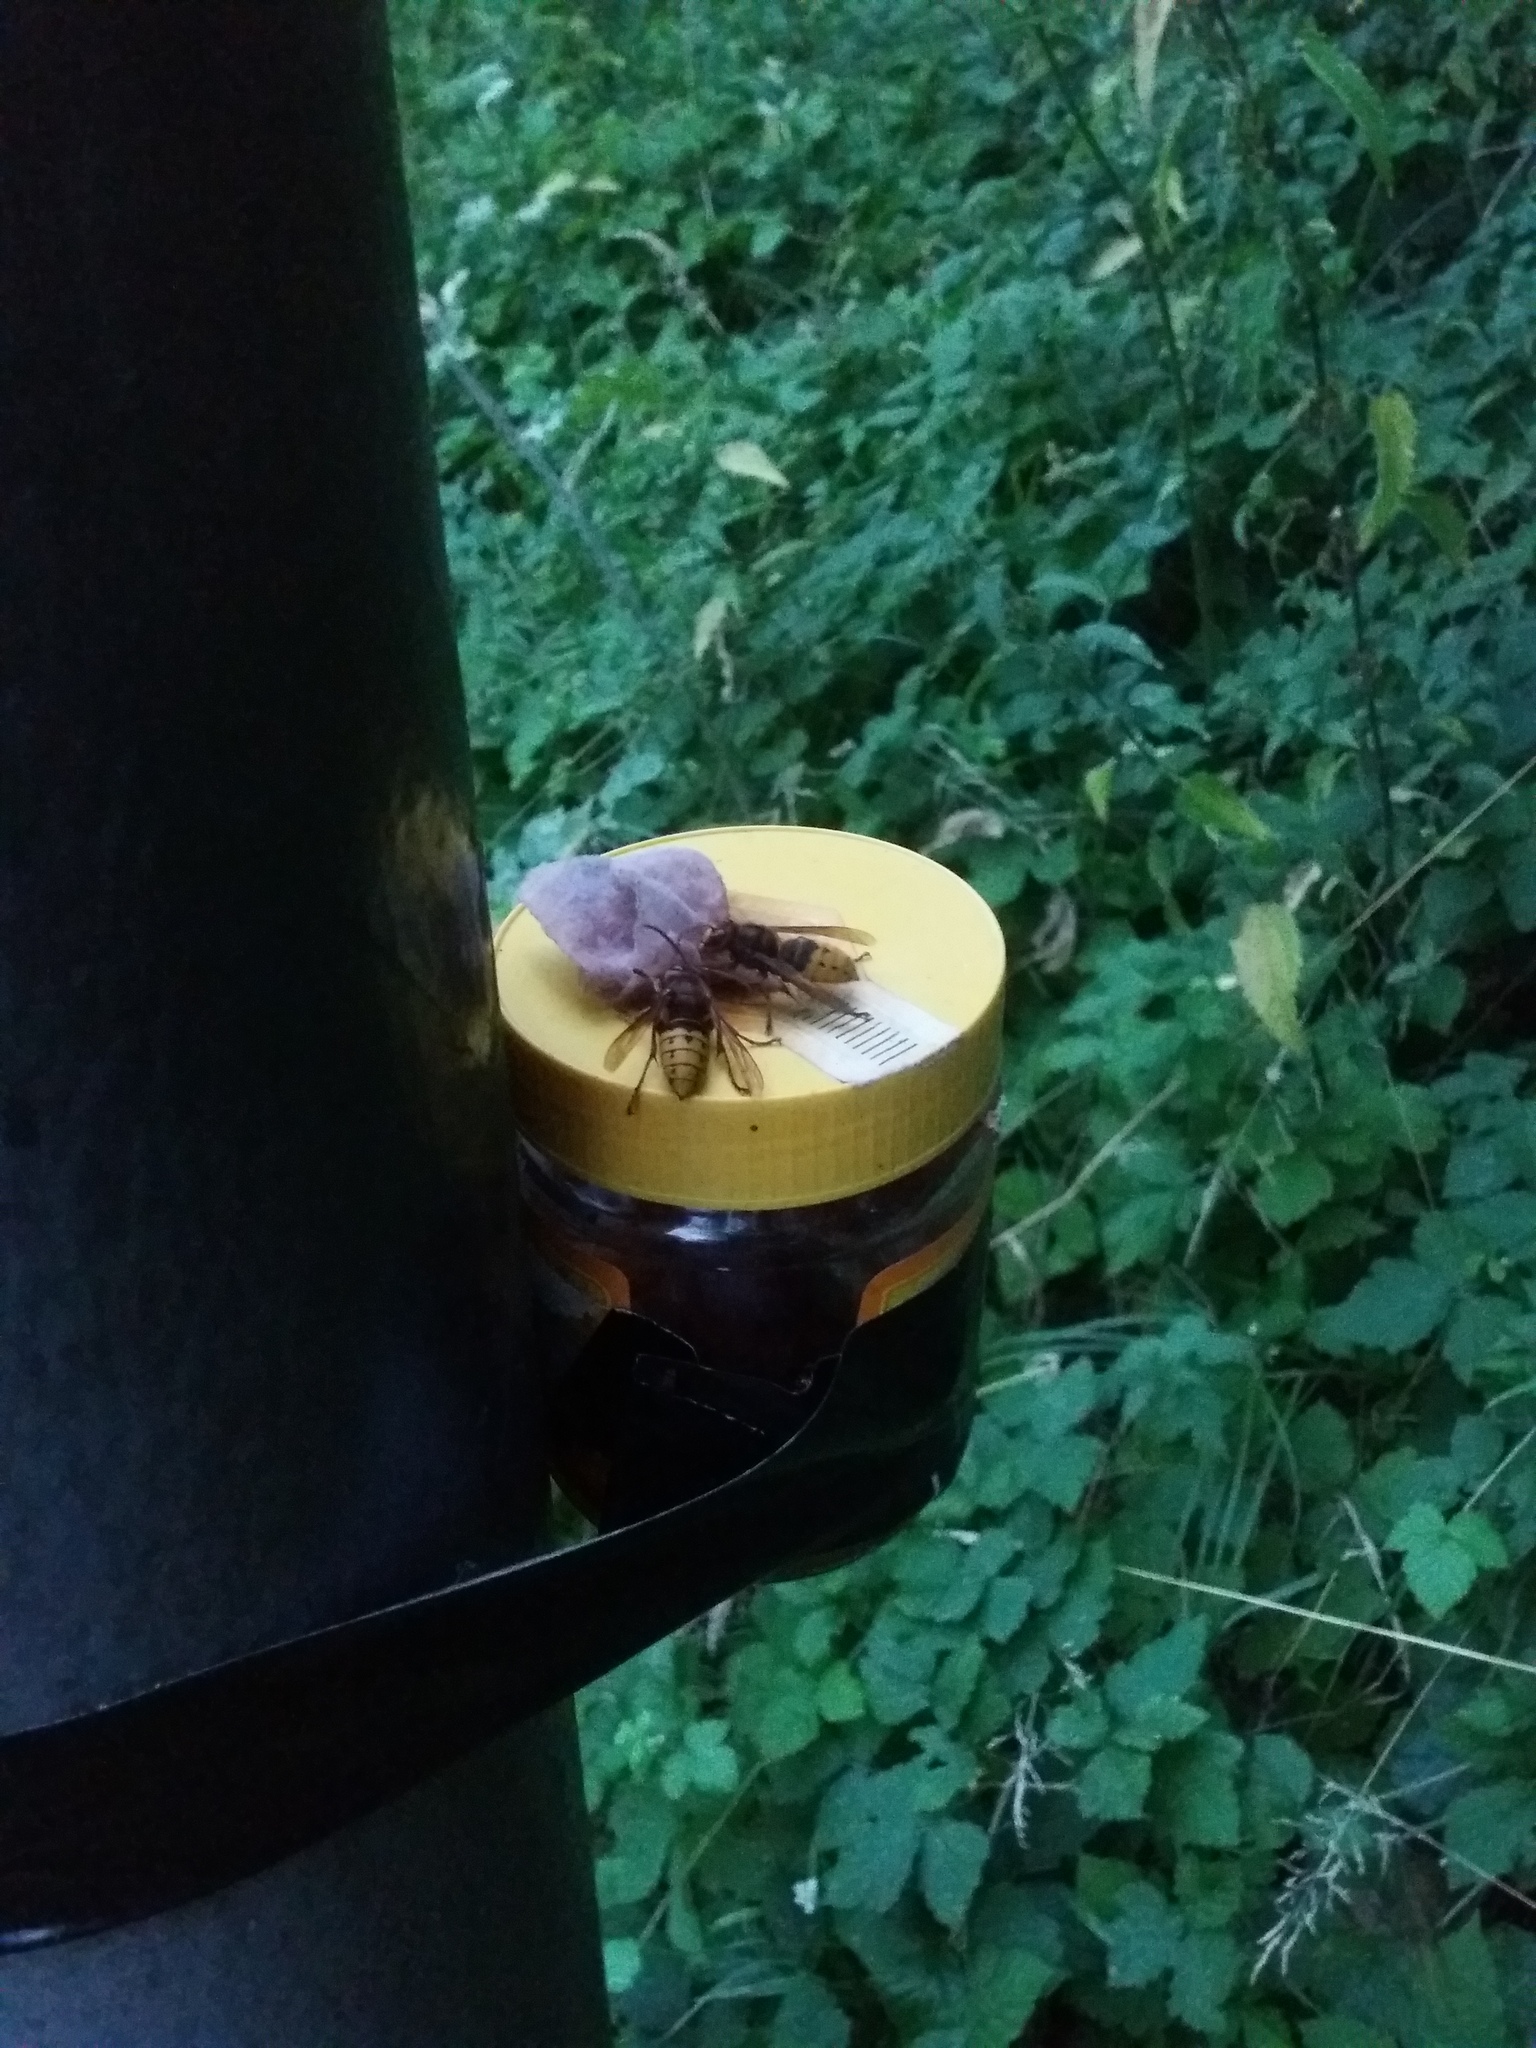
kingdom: Animalia
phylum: Arthropoda
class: Insecta
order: Hymenoptera
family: Vespidae
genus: Vespa
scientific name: Vespa crabro
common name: Hornet
